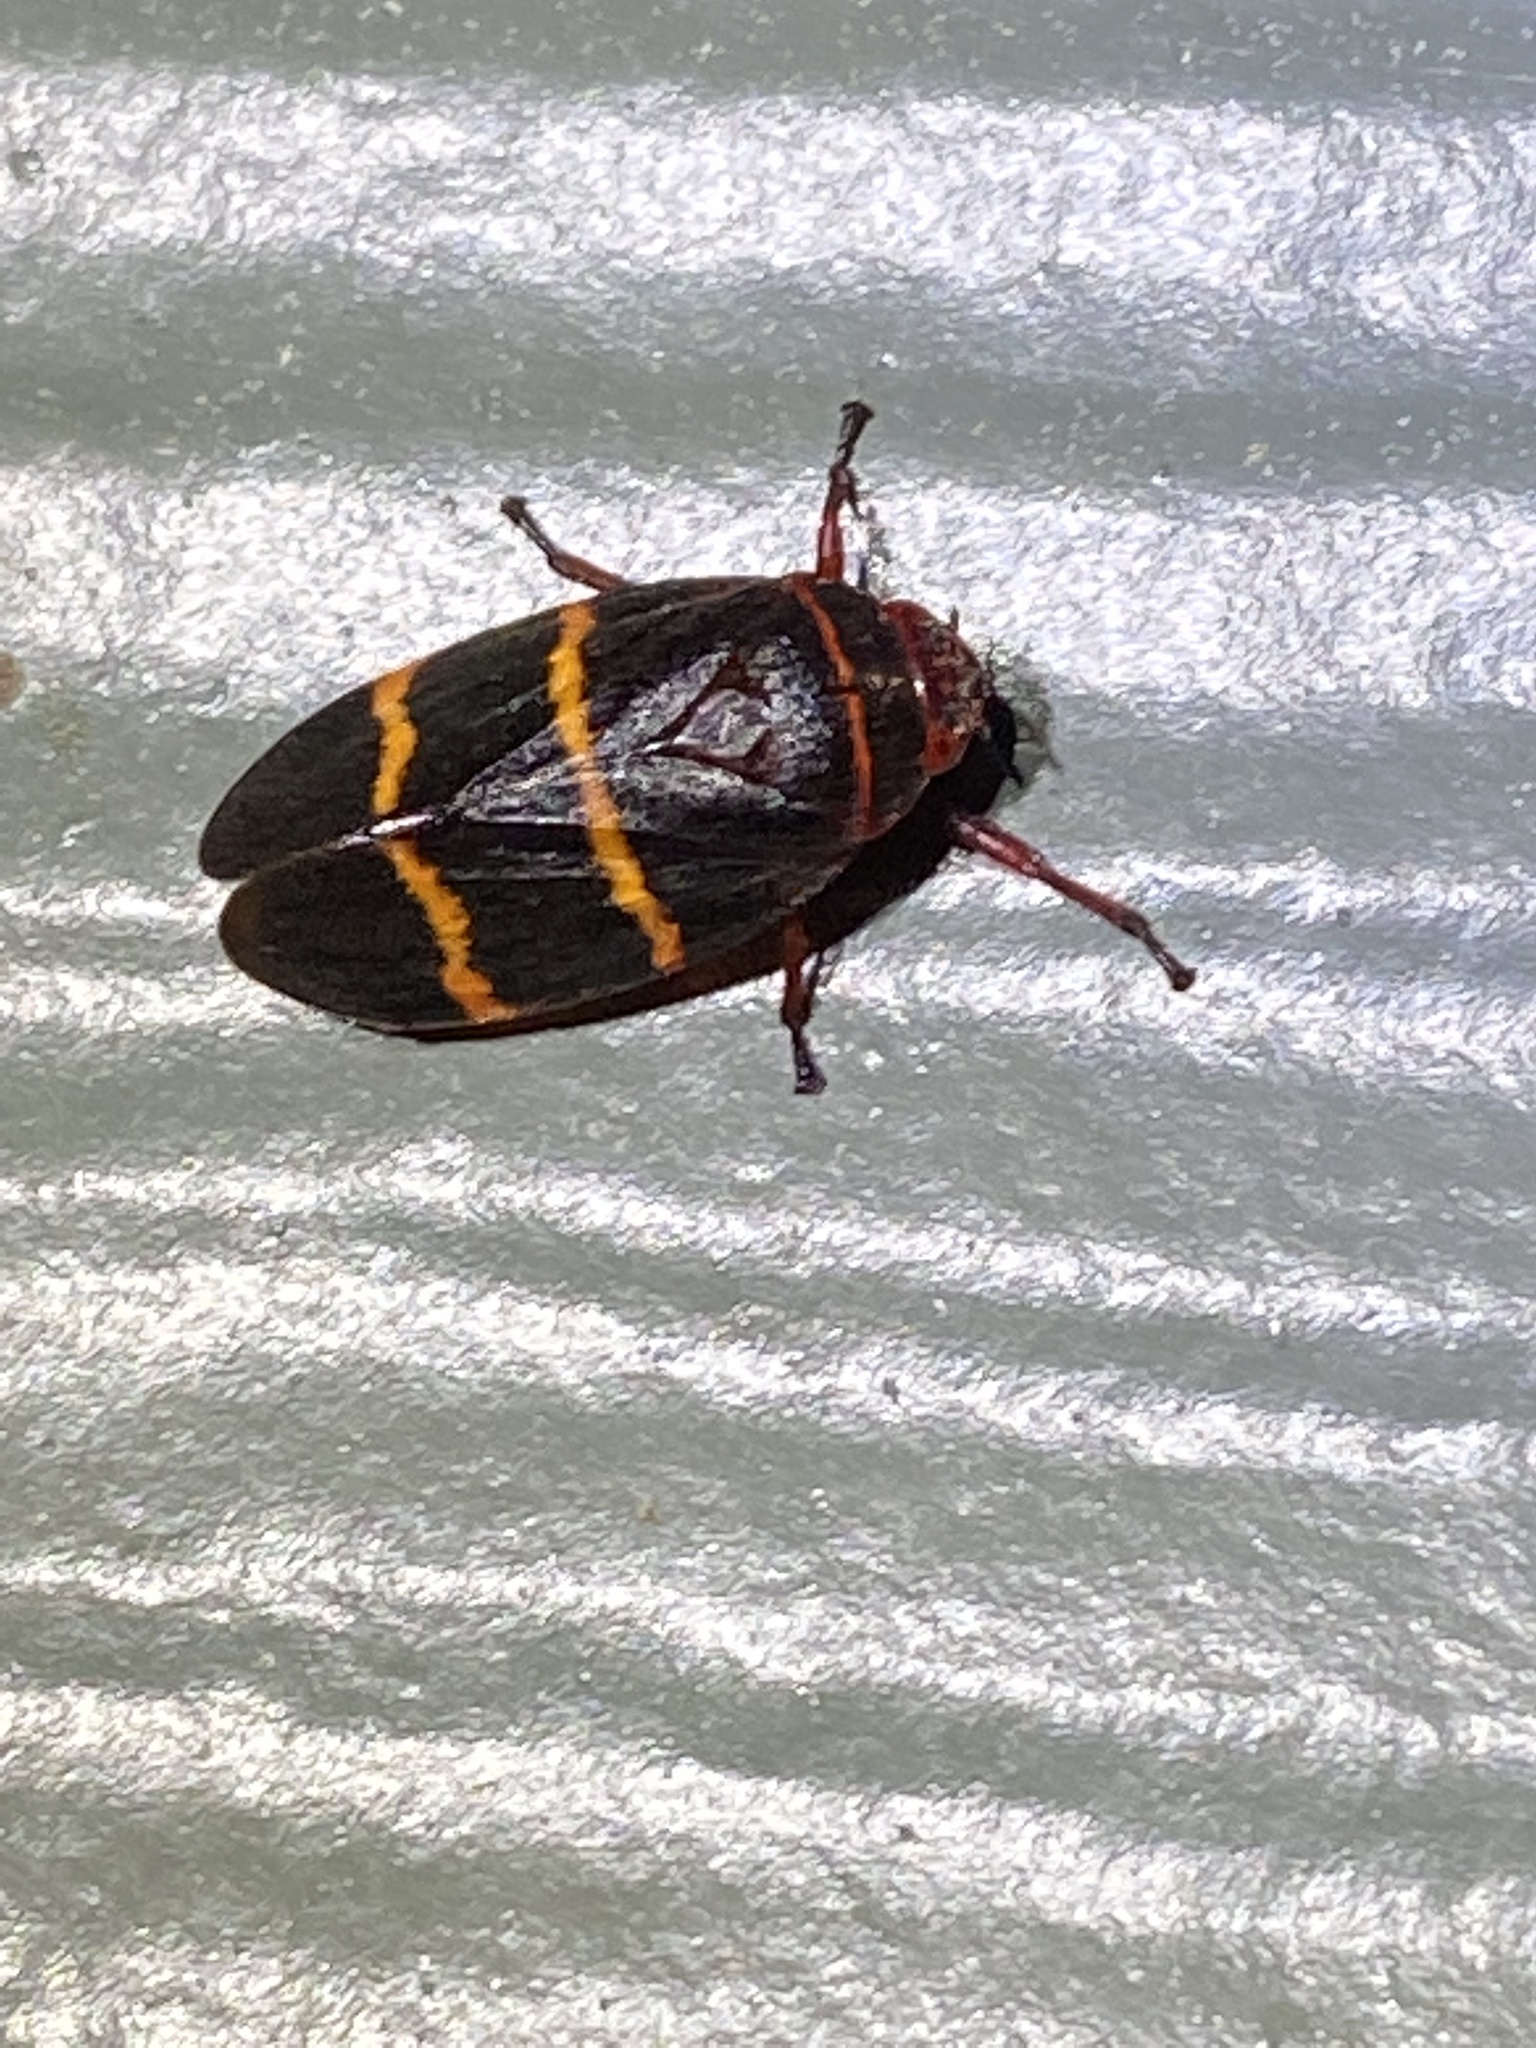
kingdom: Animalia
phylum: Arthropoda
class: Insecta
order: Hemiptera
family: Cercopidae
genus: Prosapia
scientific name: Prosapia bicincta
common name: Twolined spittlebug
